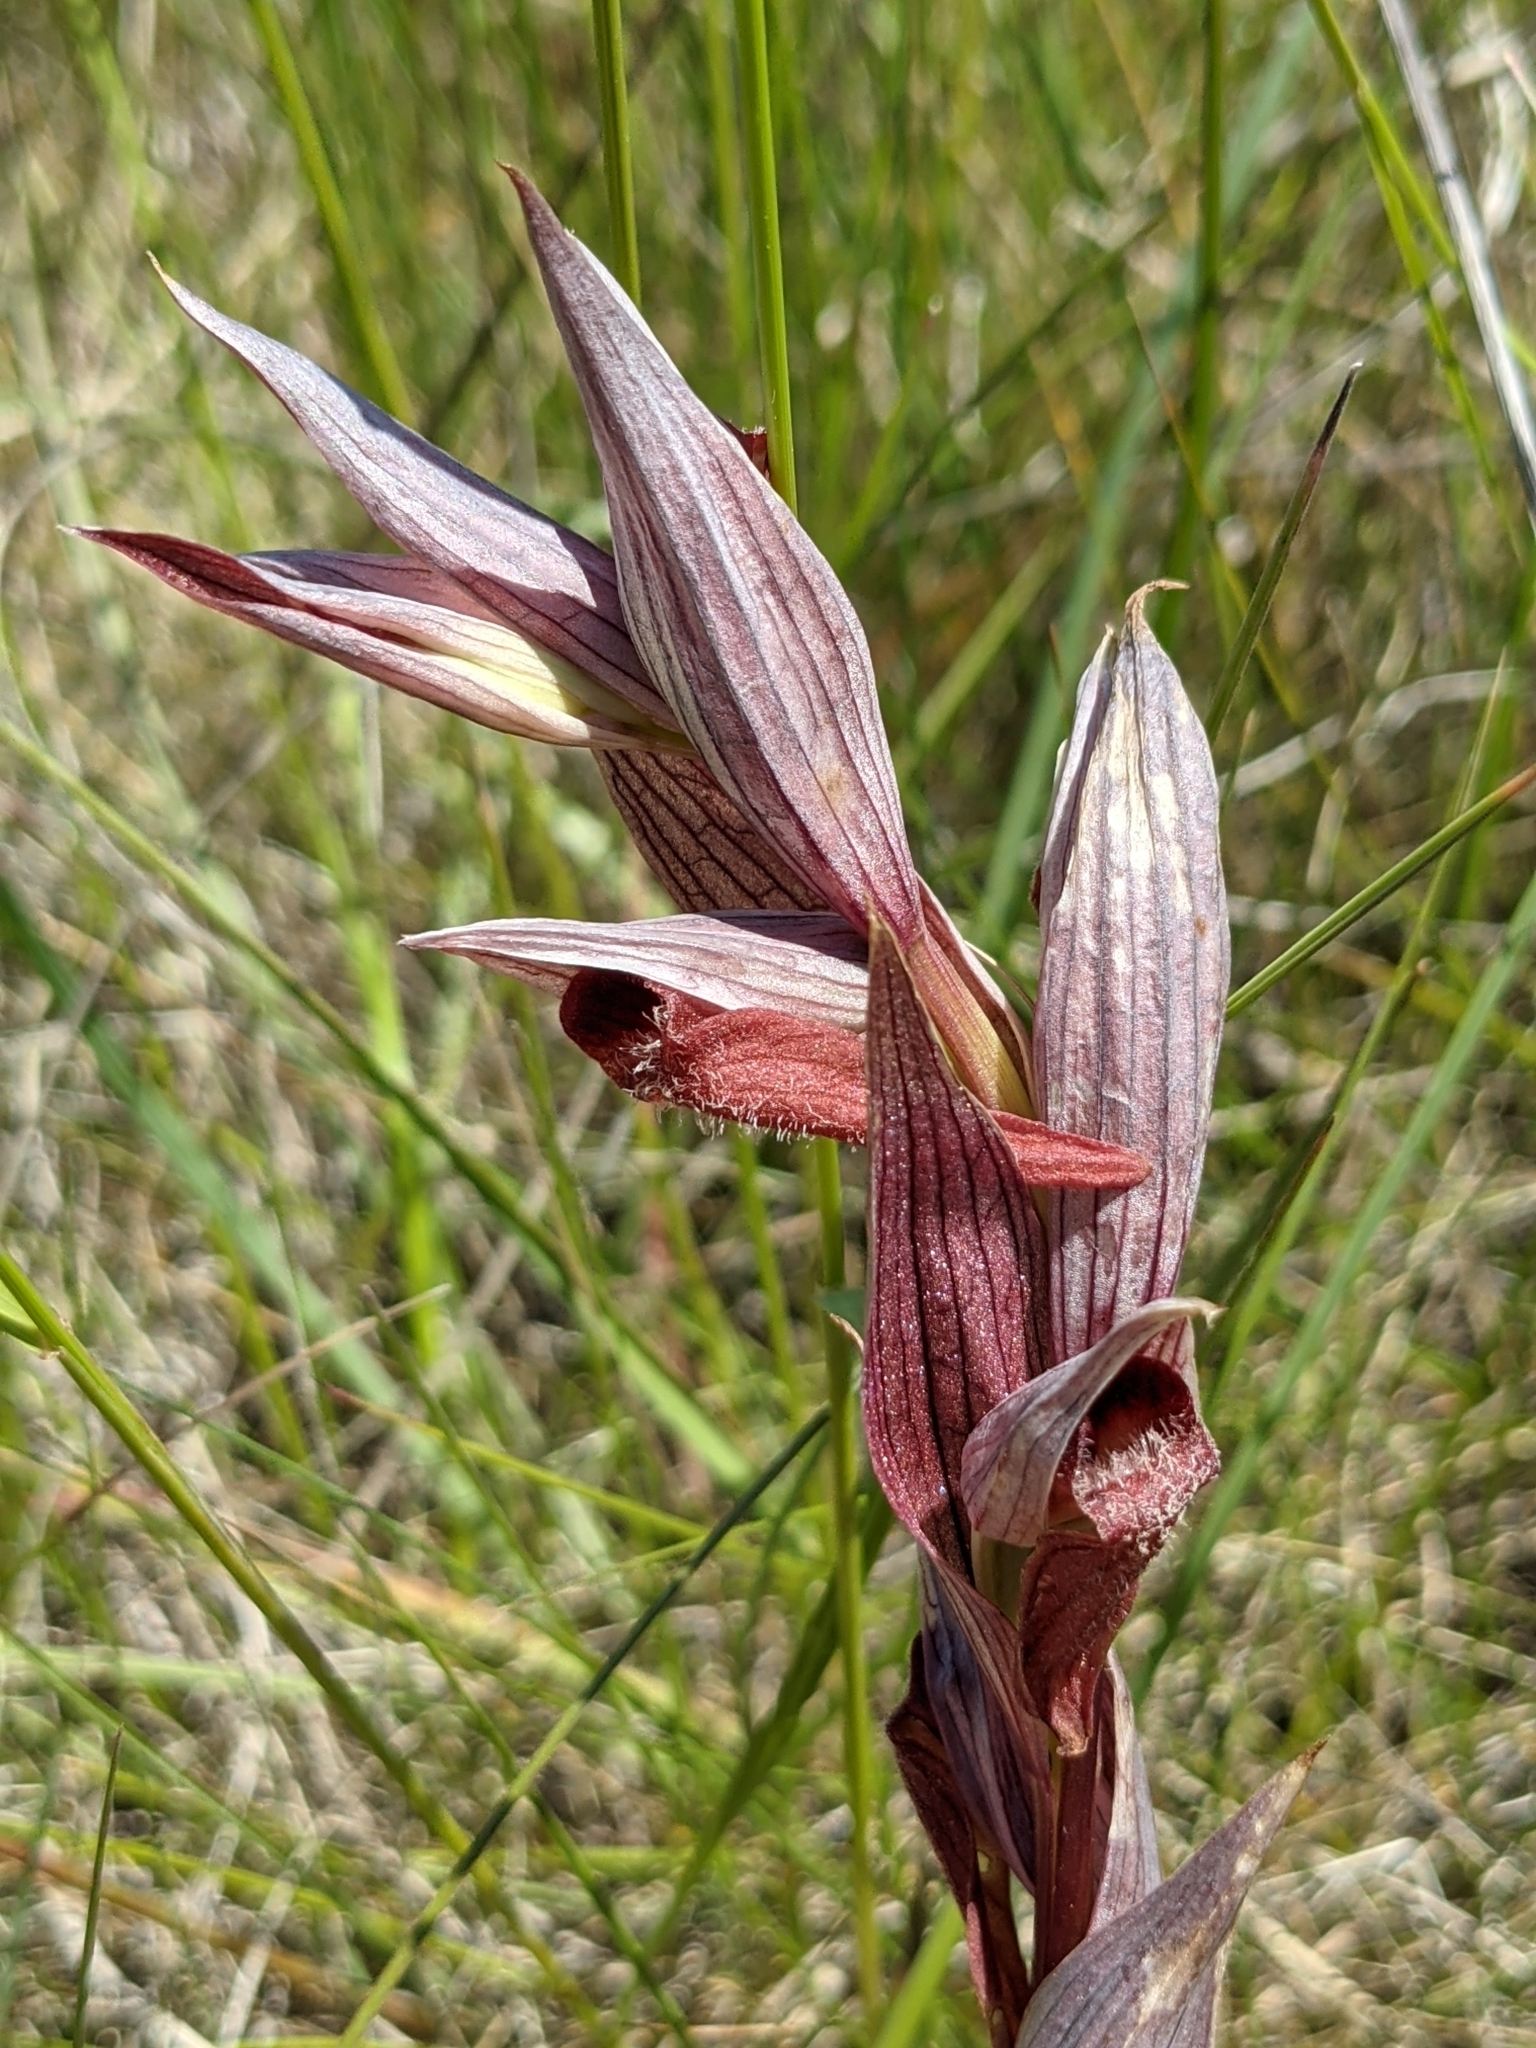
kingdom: Plantae
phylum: Tracheophyta
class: Liliopsida
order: Asparagales
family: Orchidaceae
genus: Serapias
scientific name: Serapias vomeracea
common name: Long-lipped tongue-orchid
